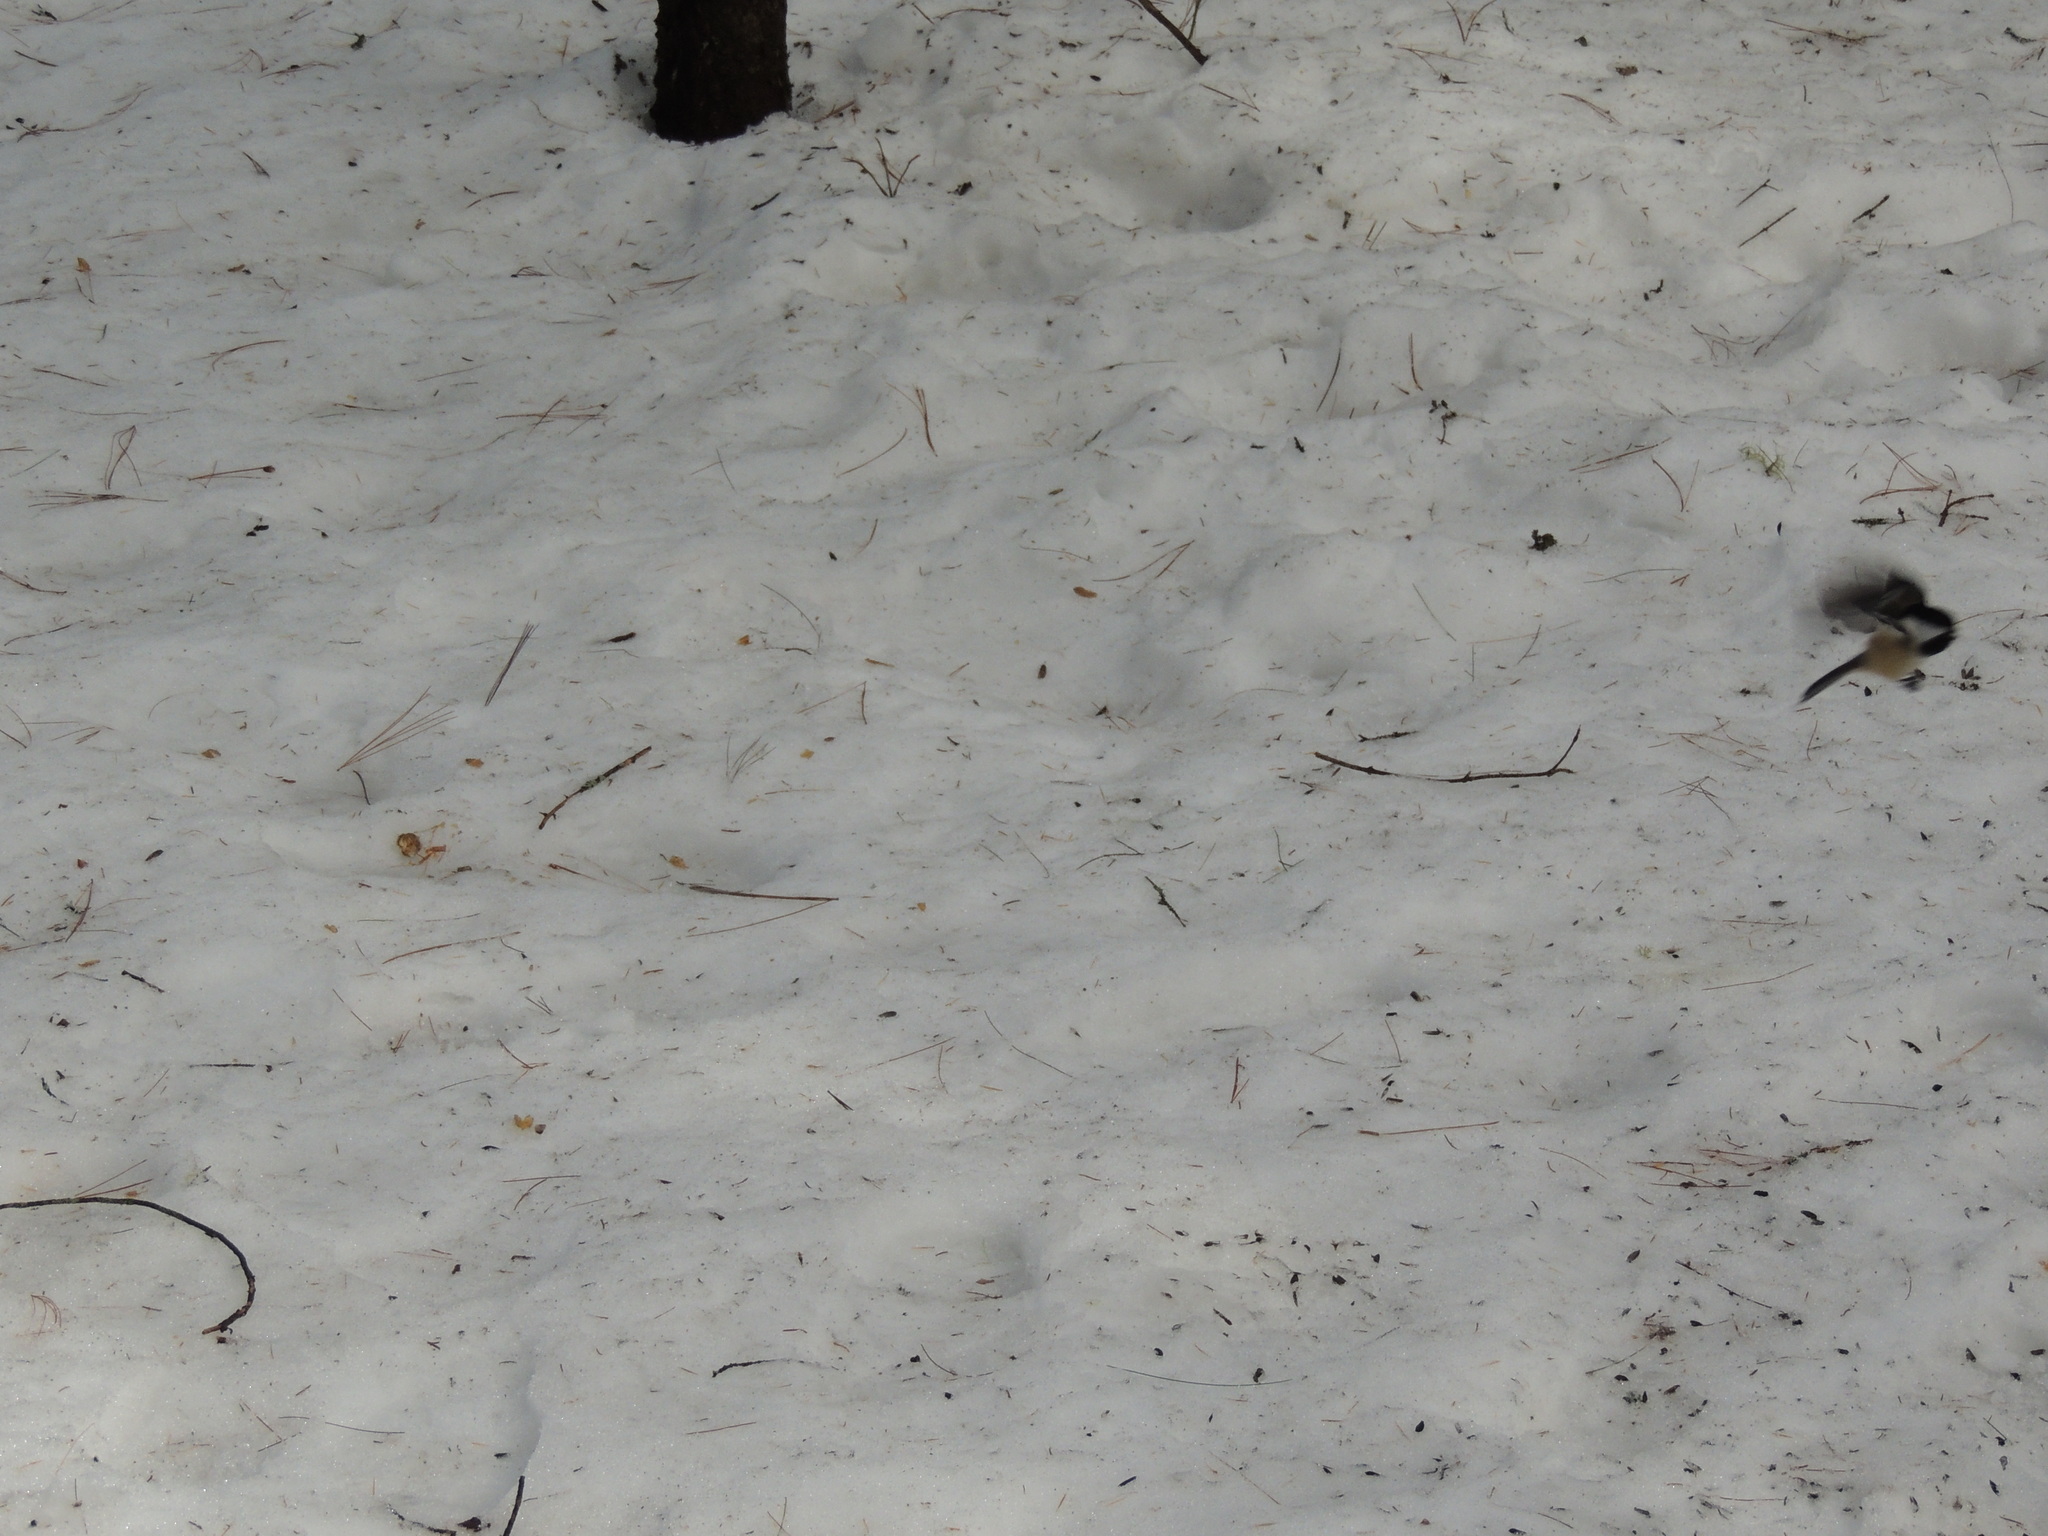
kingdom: Animalia
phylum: Chordata
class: Aves
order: Passeriformes
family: Paridae
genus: Poecile
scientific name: Poecile atricapillus
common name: Black-capped chickadee
